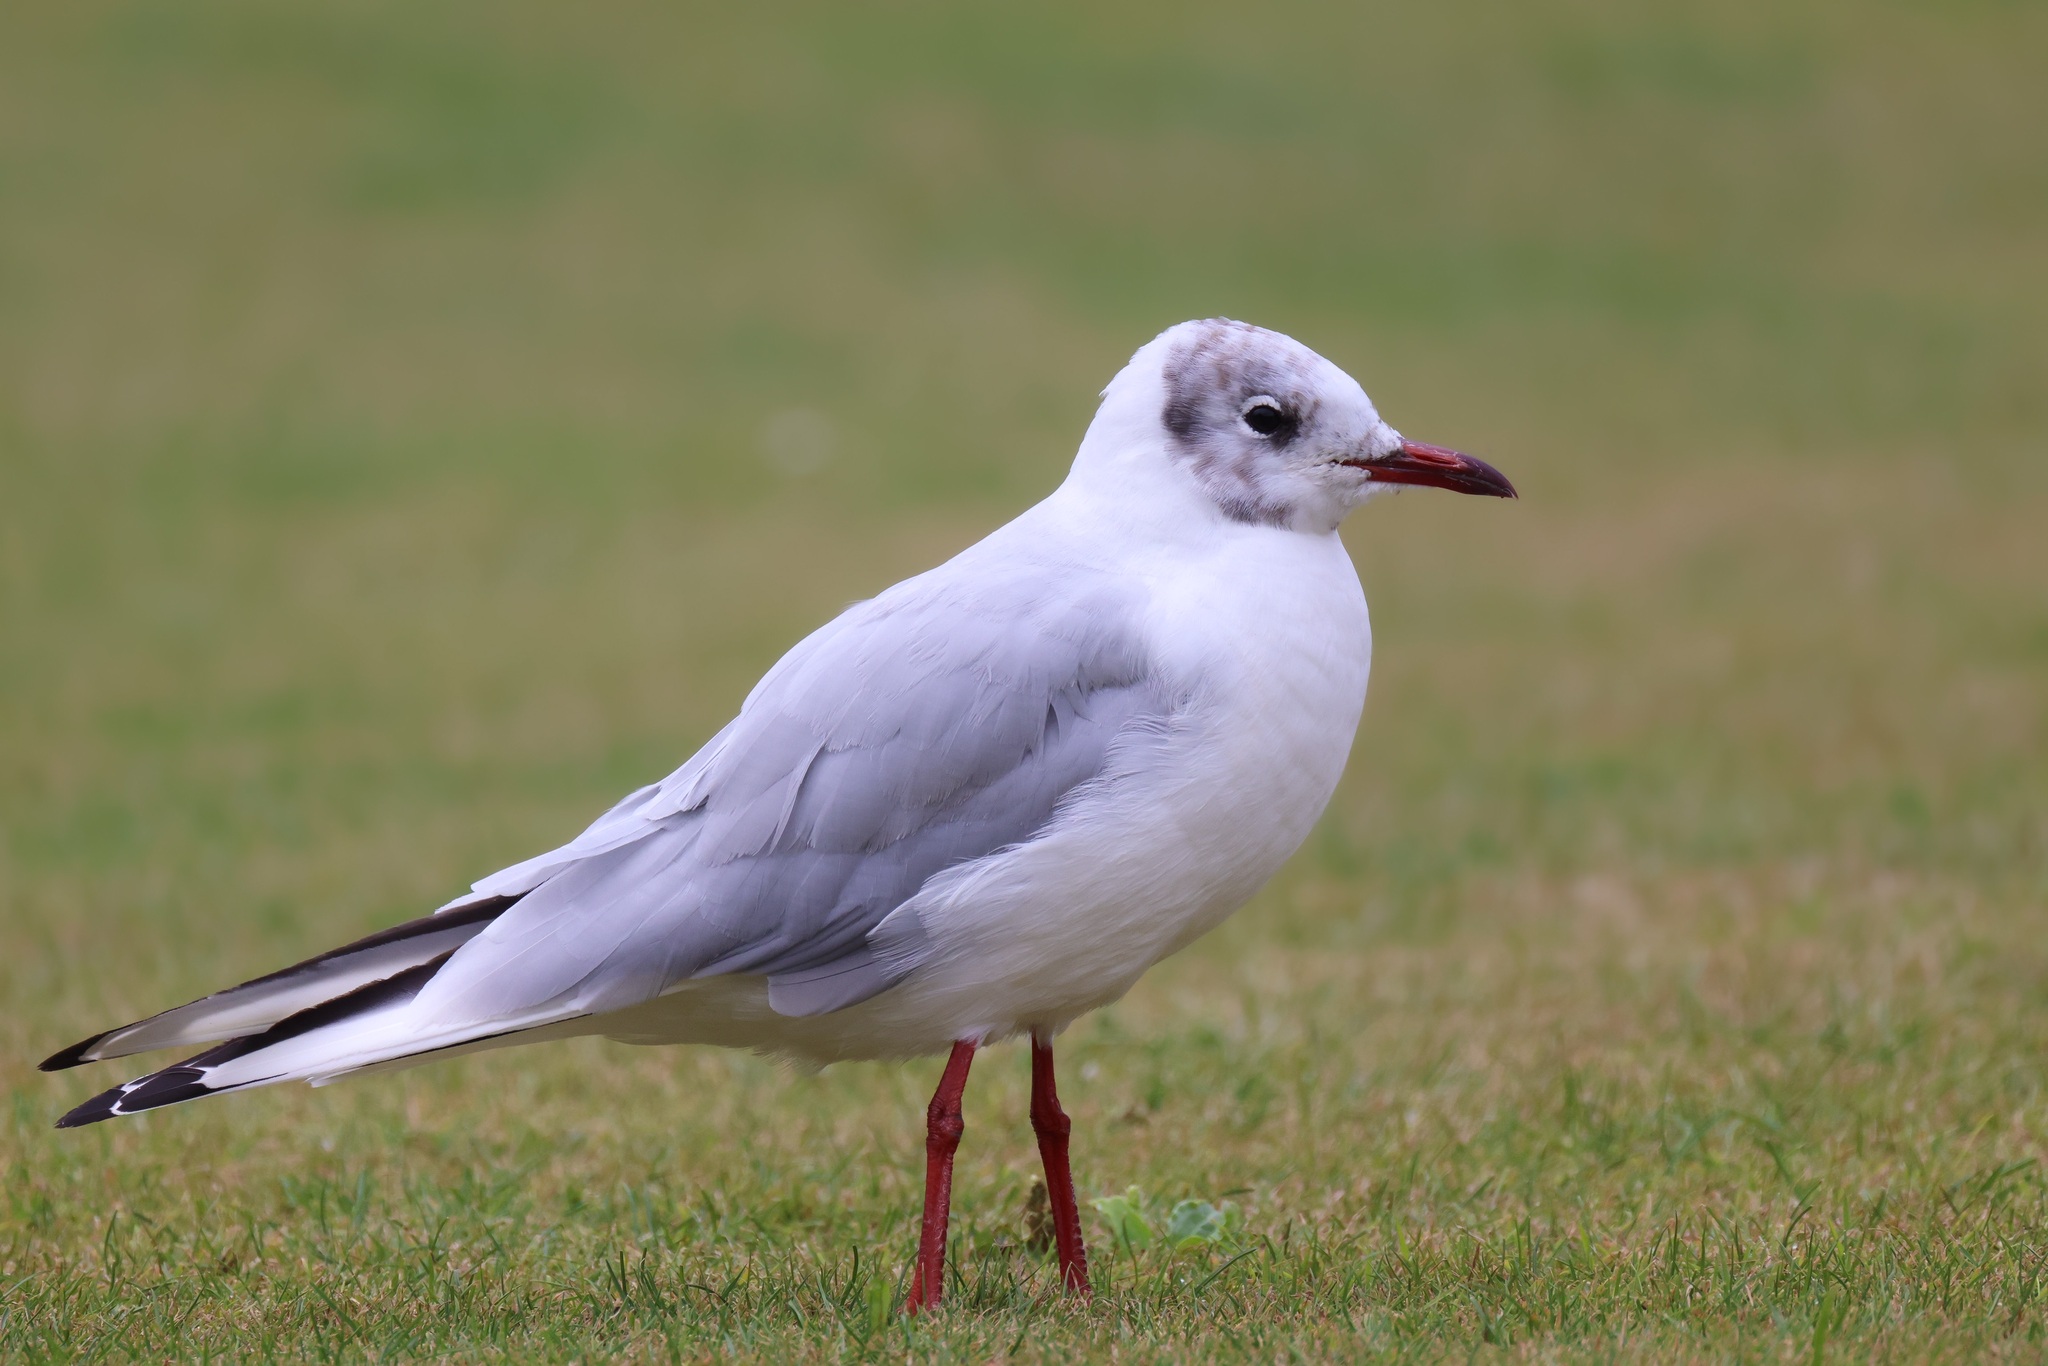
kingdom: Animalia
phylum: Chordata
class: Aves
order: Charadriiformes
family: Laridae
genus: Chroicocephalus
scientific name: Chroicocephalus ridibundus
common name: Black-headed gull
